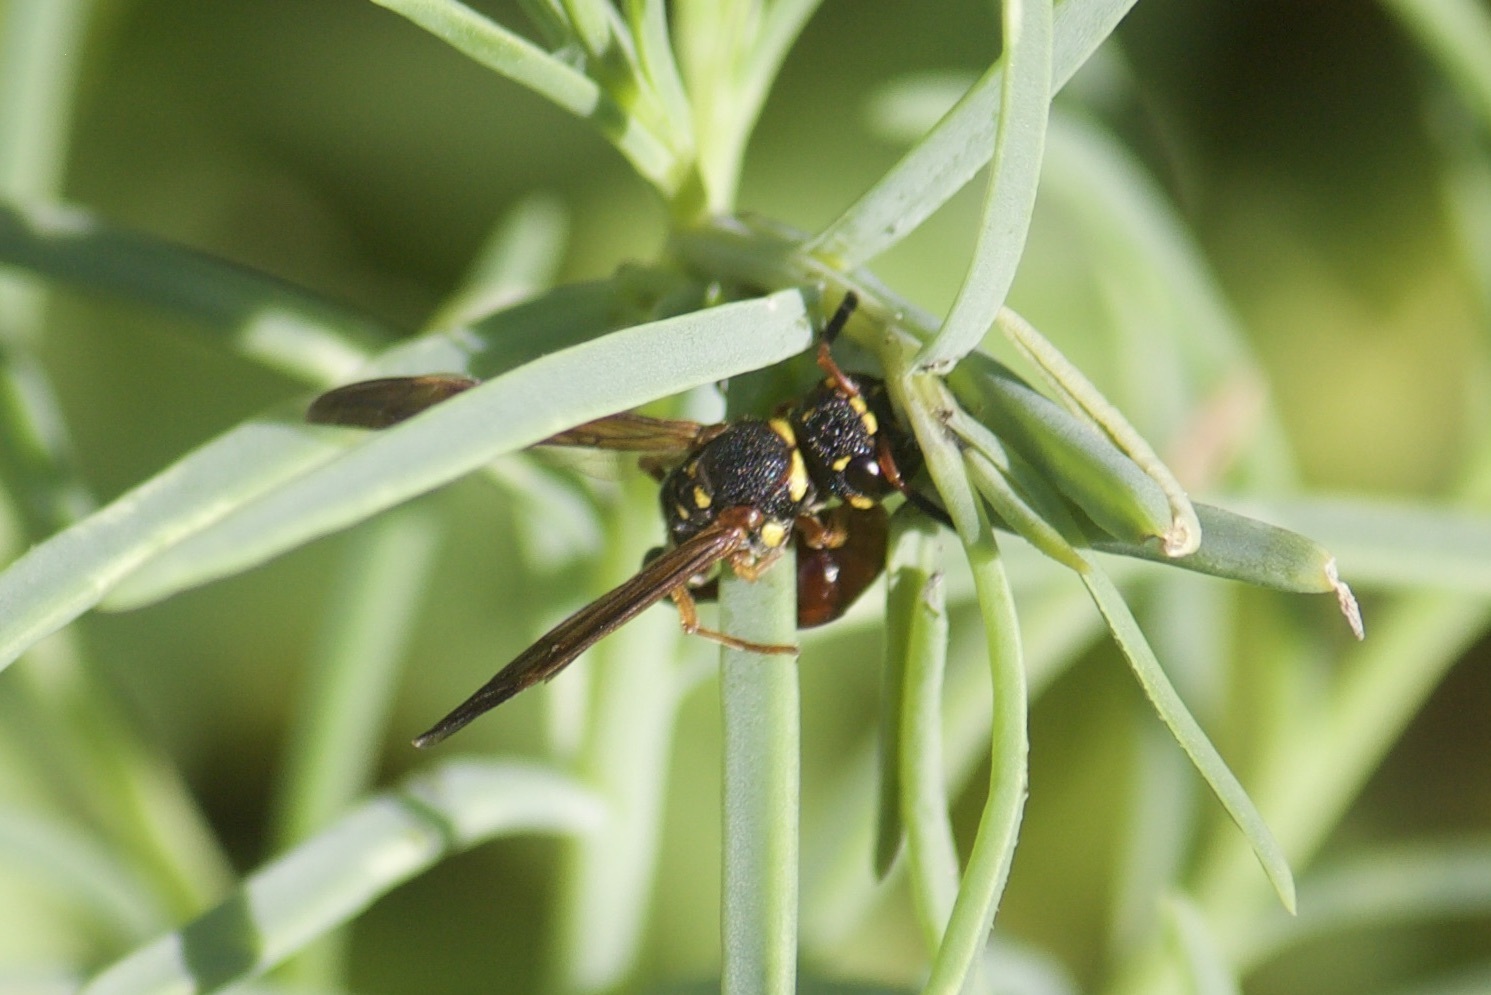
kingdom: Animalia
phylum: Arthropoda
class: Insecta
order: Hymenoptera
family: Eumenidae
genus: Zethus
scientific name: Zethus slossonae
